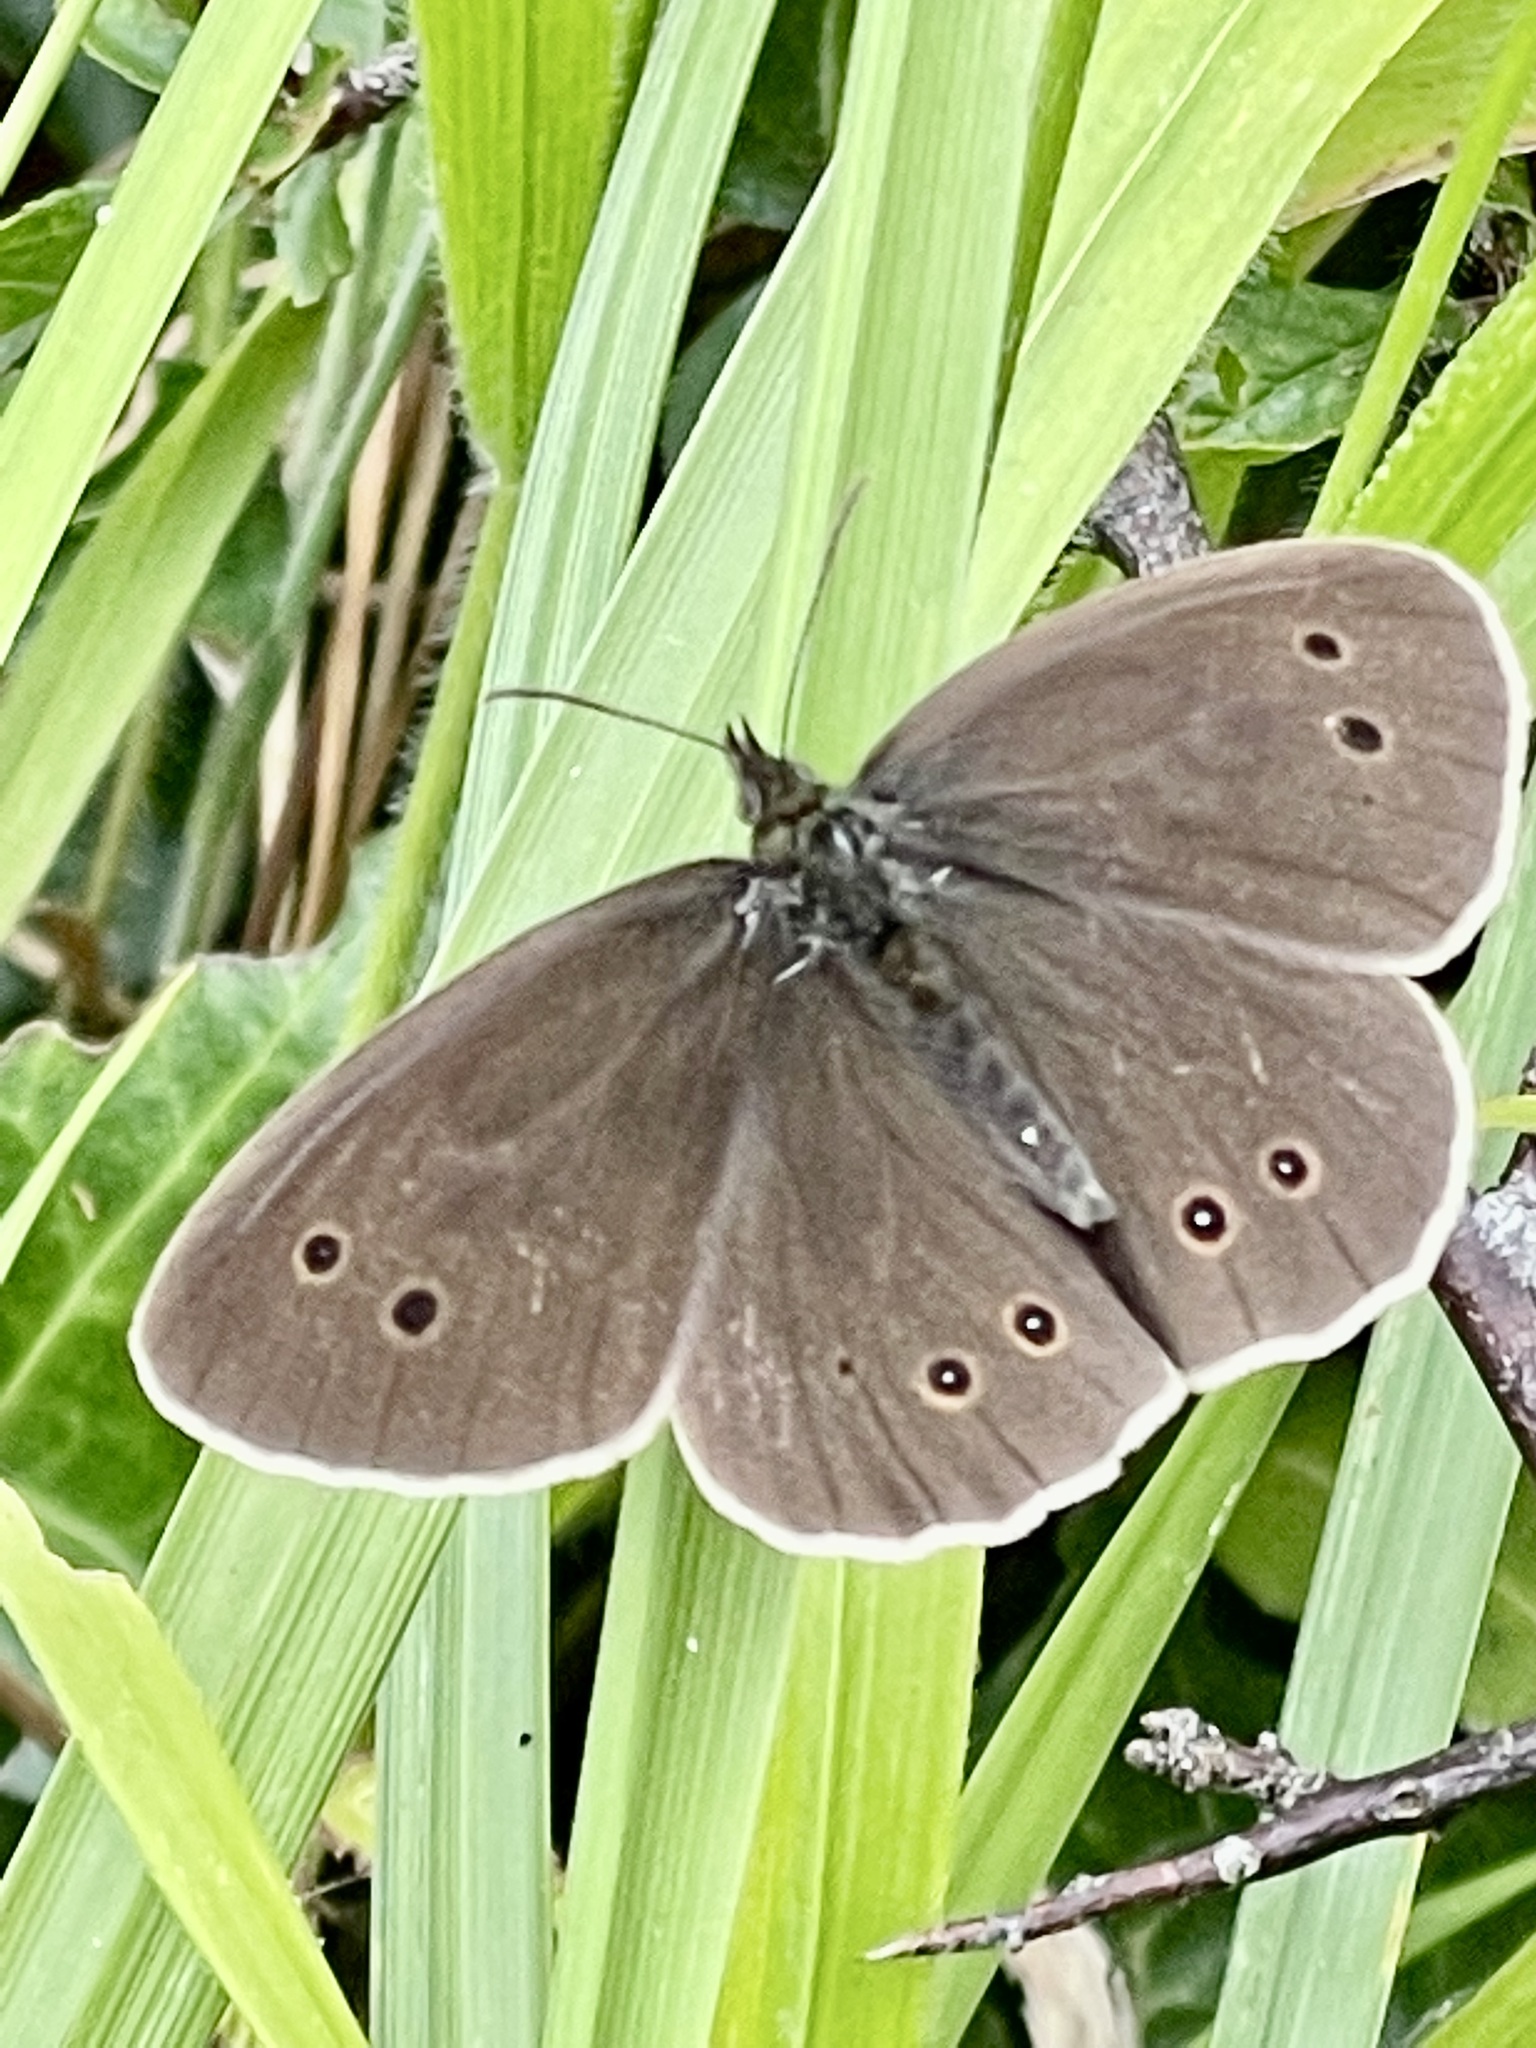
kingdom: Animalia
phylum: Arthropoda
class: Insecta
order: Lepidoptera
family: Nymphalidae
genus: Aphantopus
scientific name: Aphantopus hyperantus
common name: Ringlet
